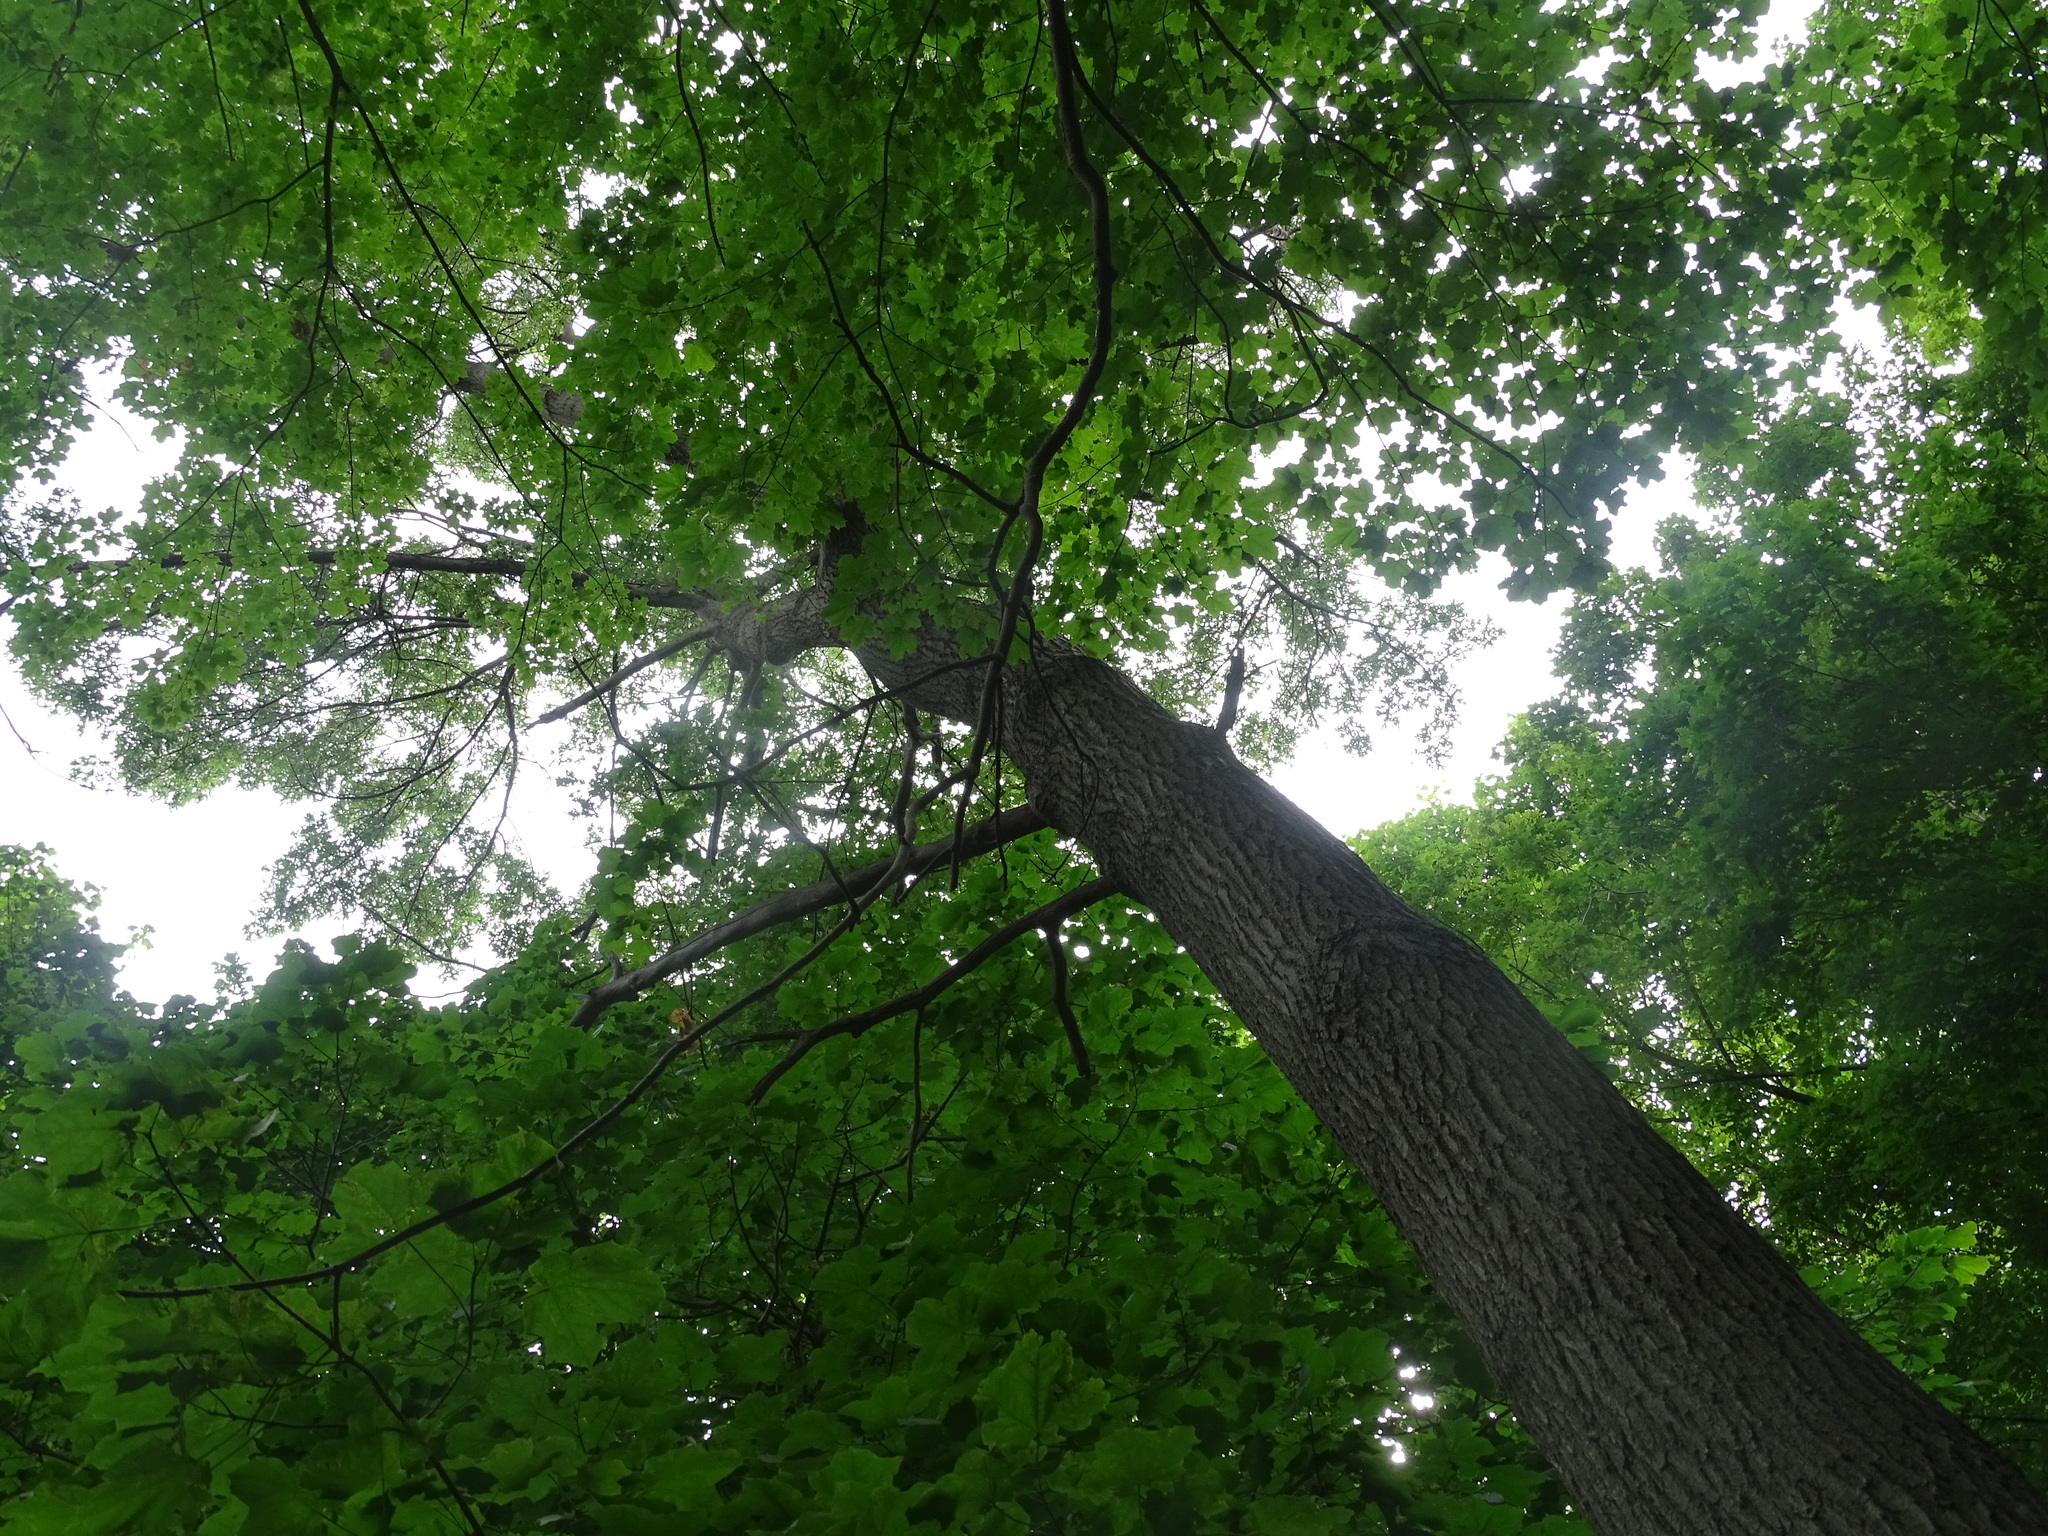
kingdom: Plantae
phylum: Tracheophyta
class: Magnoliopsida
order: Fagales
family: Fagaceae
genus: Quercus
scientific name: Quercus velutina
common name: Black oak
